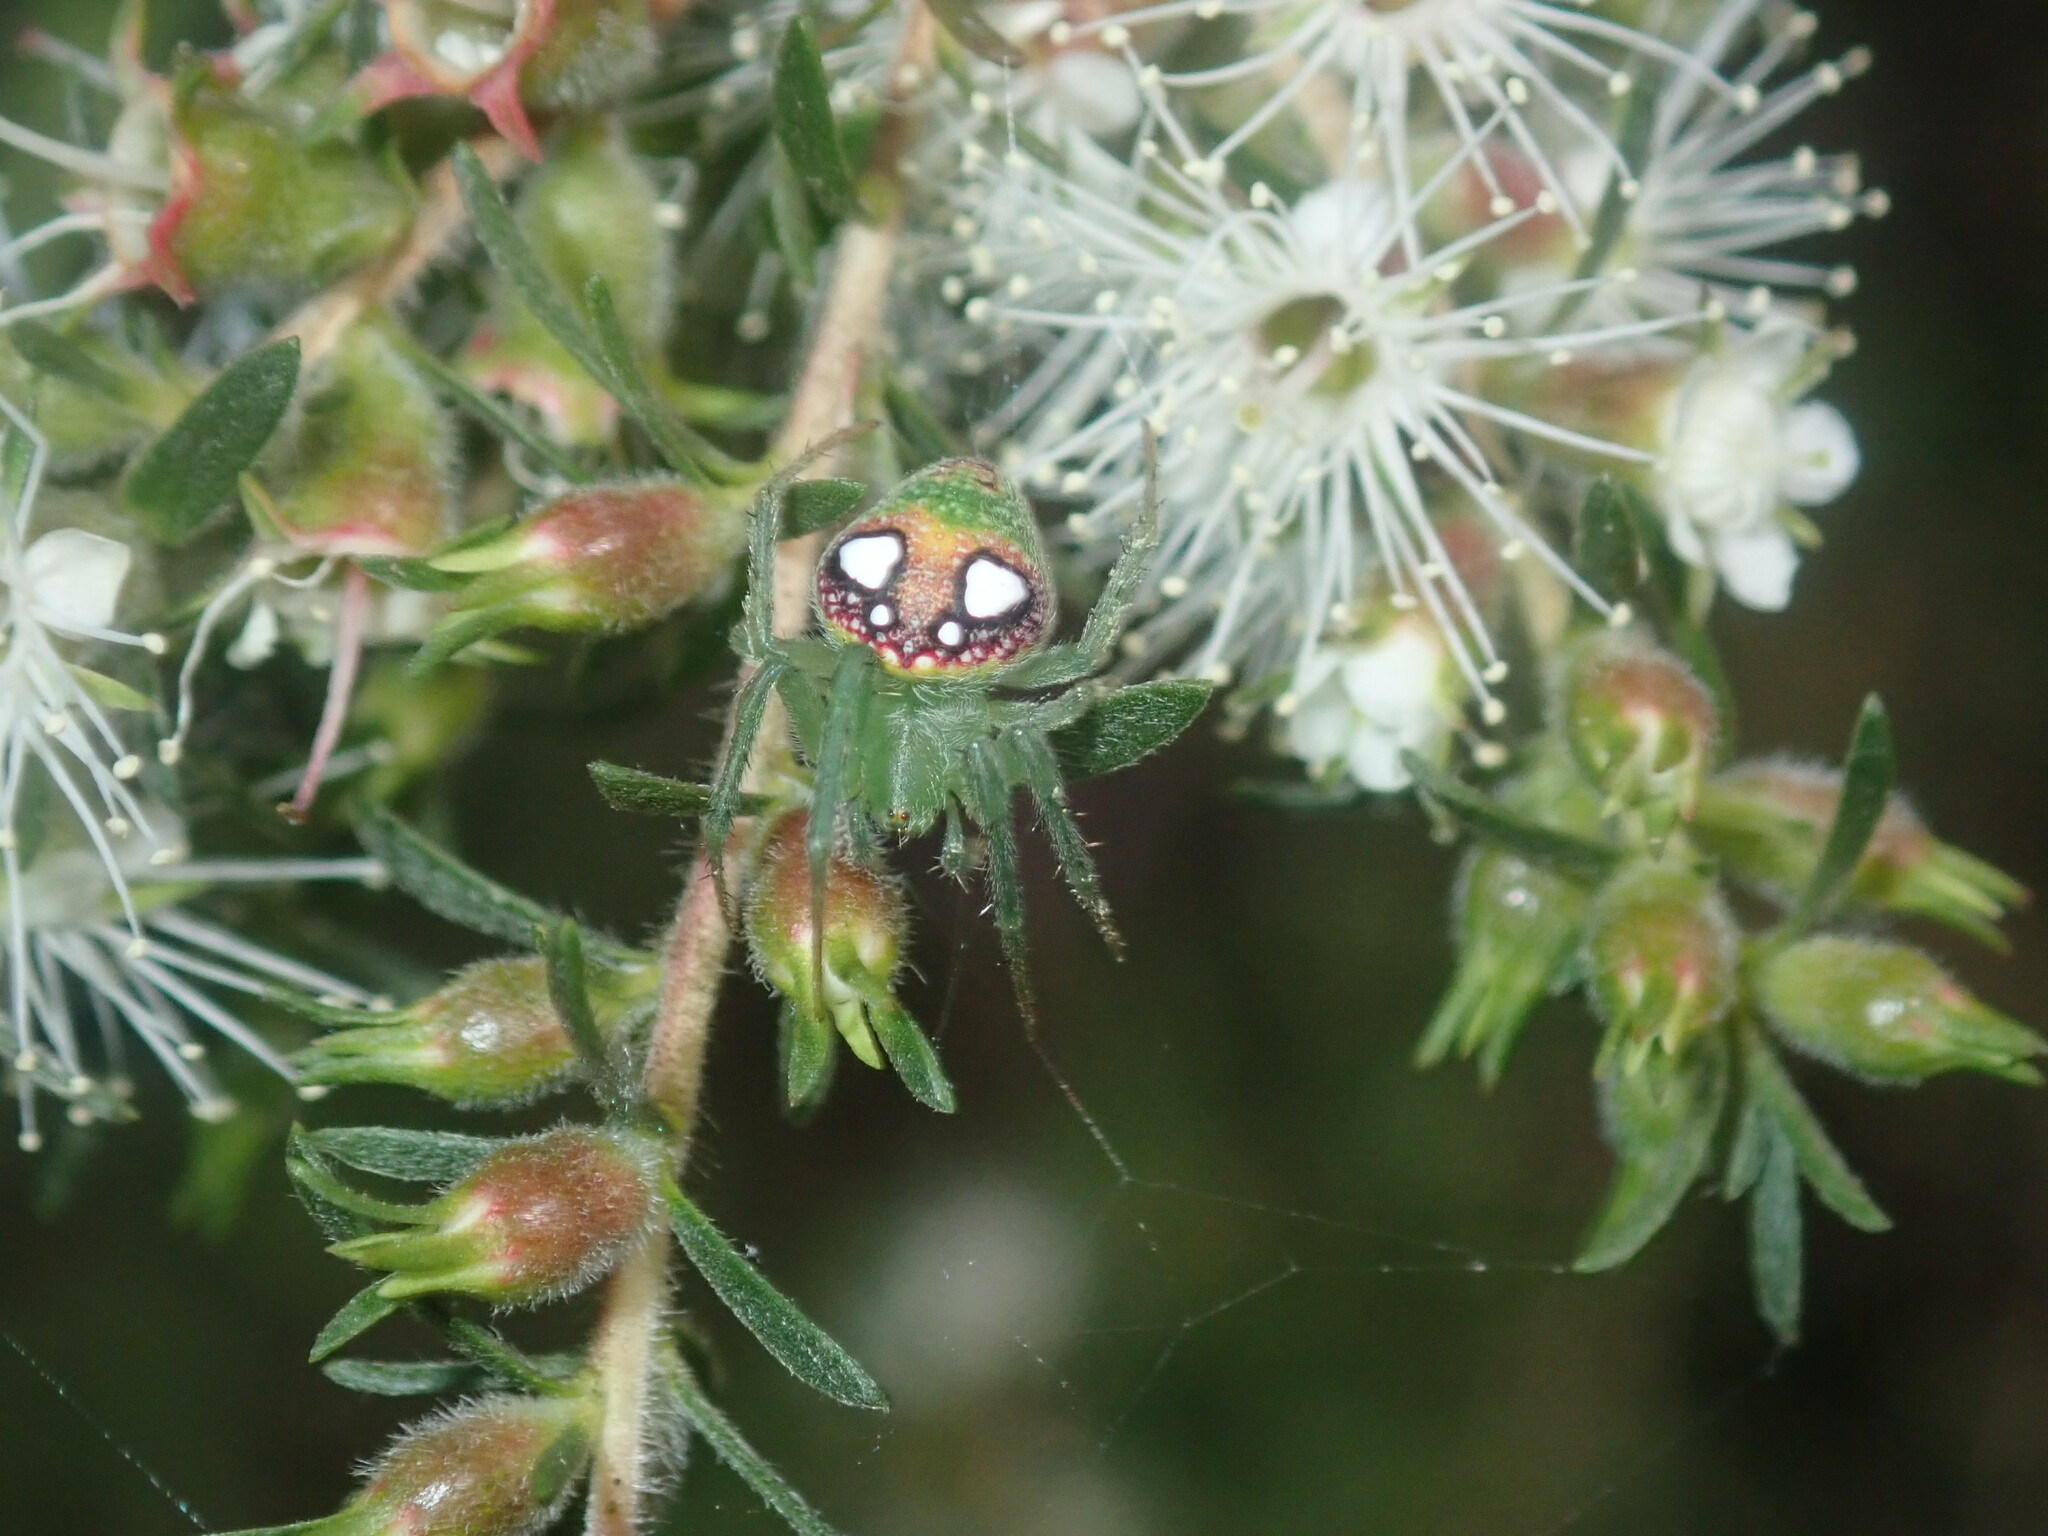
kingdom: Animalia
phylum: Arthropoda
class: Arachnida
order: Araneae
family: Araneidae
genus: Araneus
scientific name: Araneus circulissparsus
